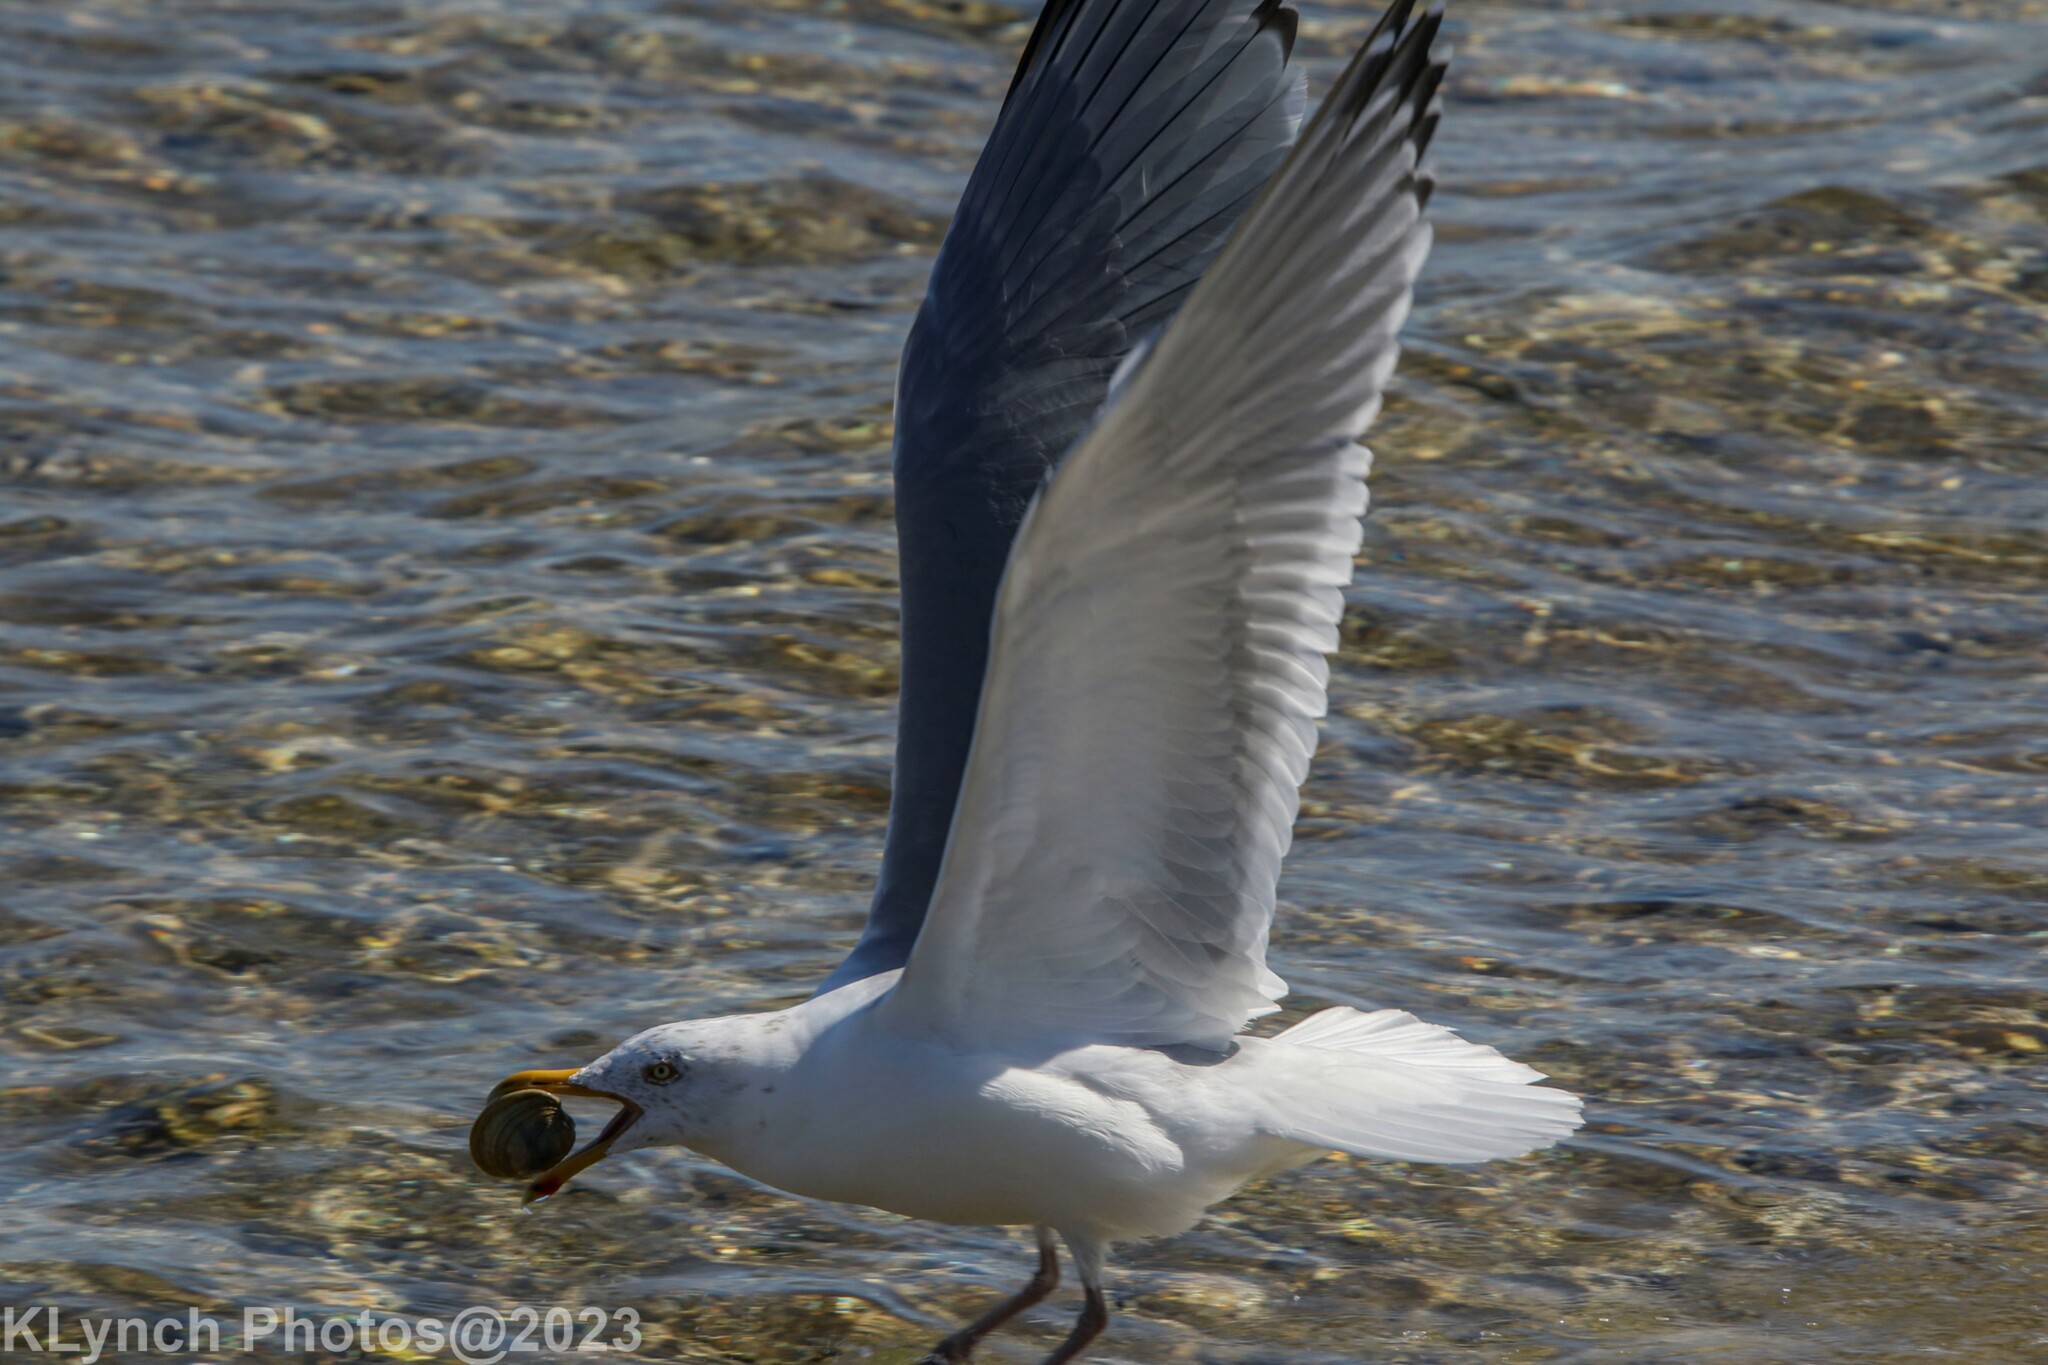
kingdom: Animalia
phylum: Chordata
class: Aves
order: Charadriiformes
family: Laridae
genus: Larus
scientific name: Larus argentatus
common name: Herring gull
